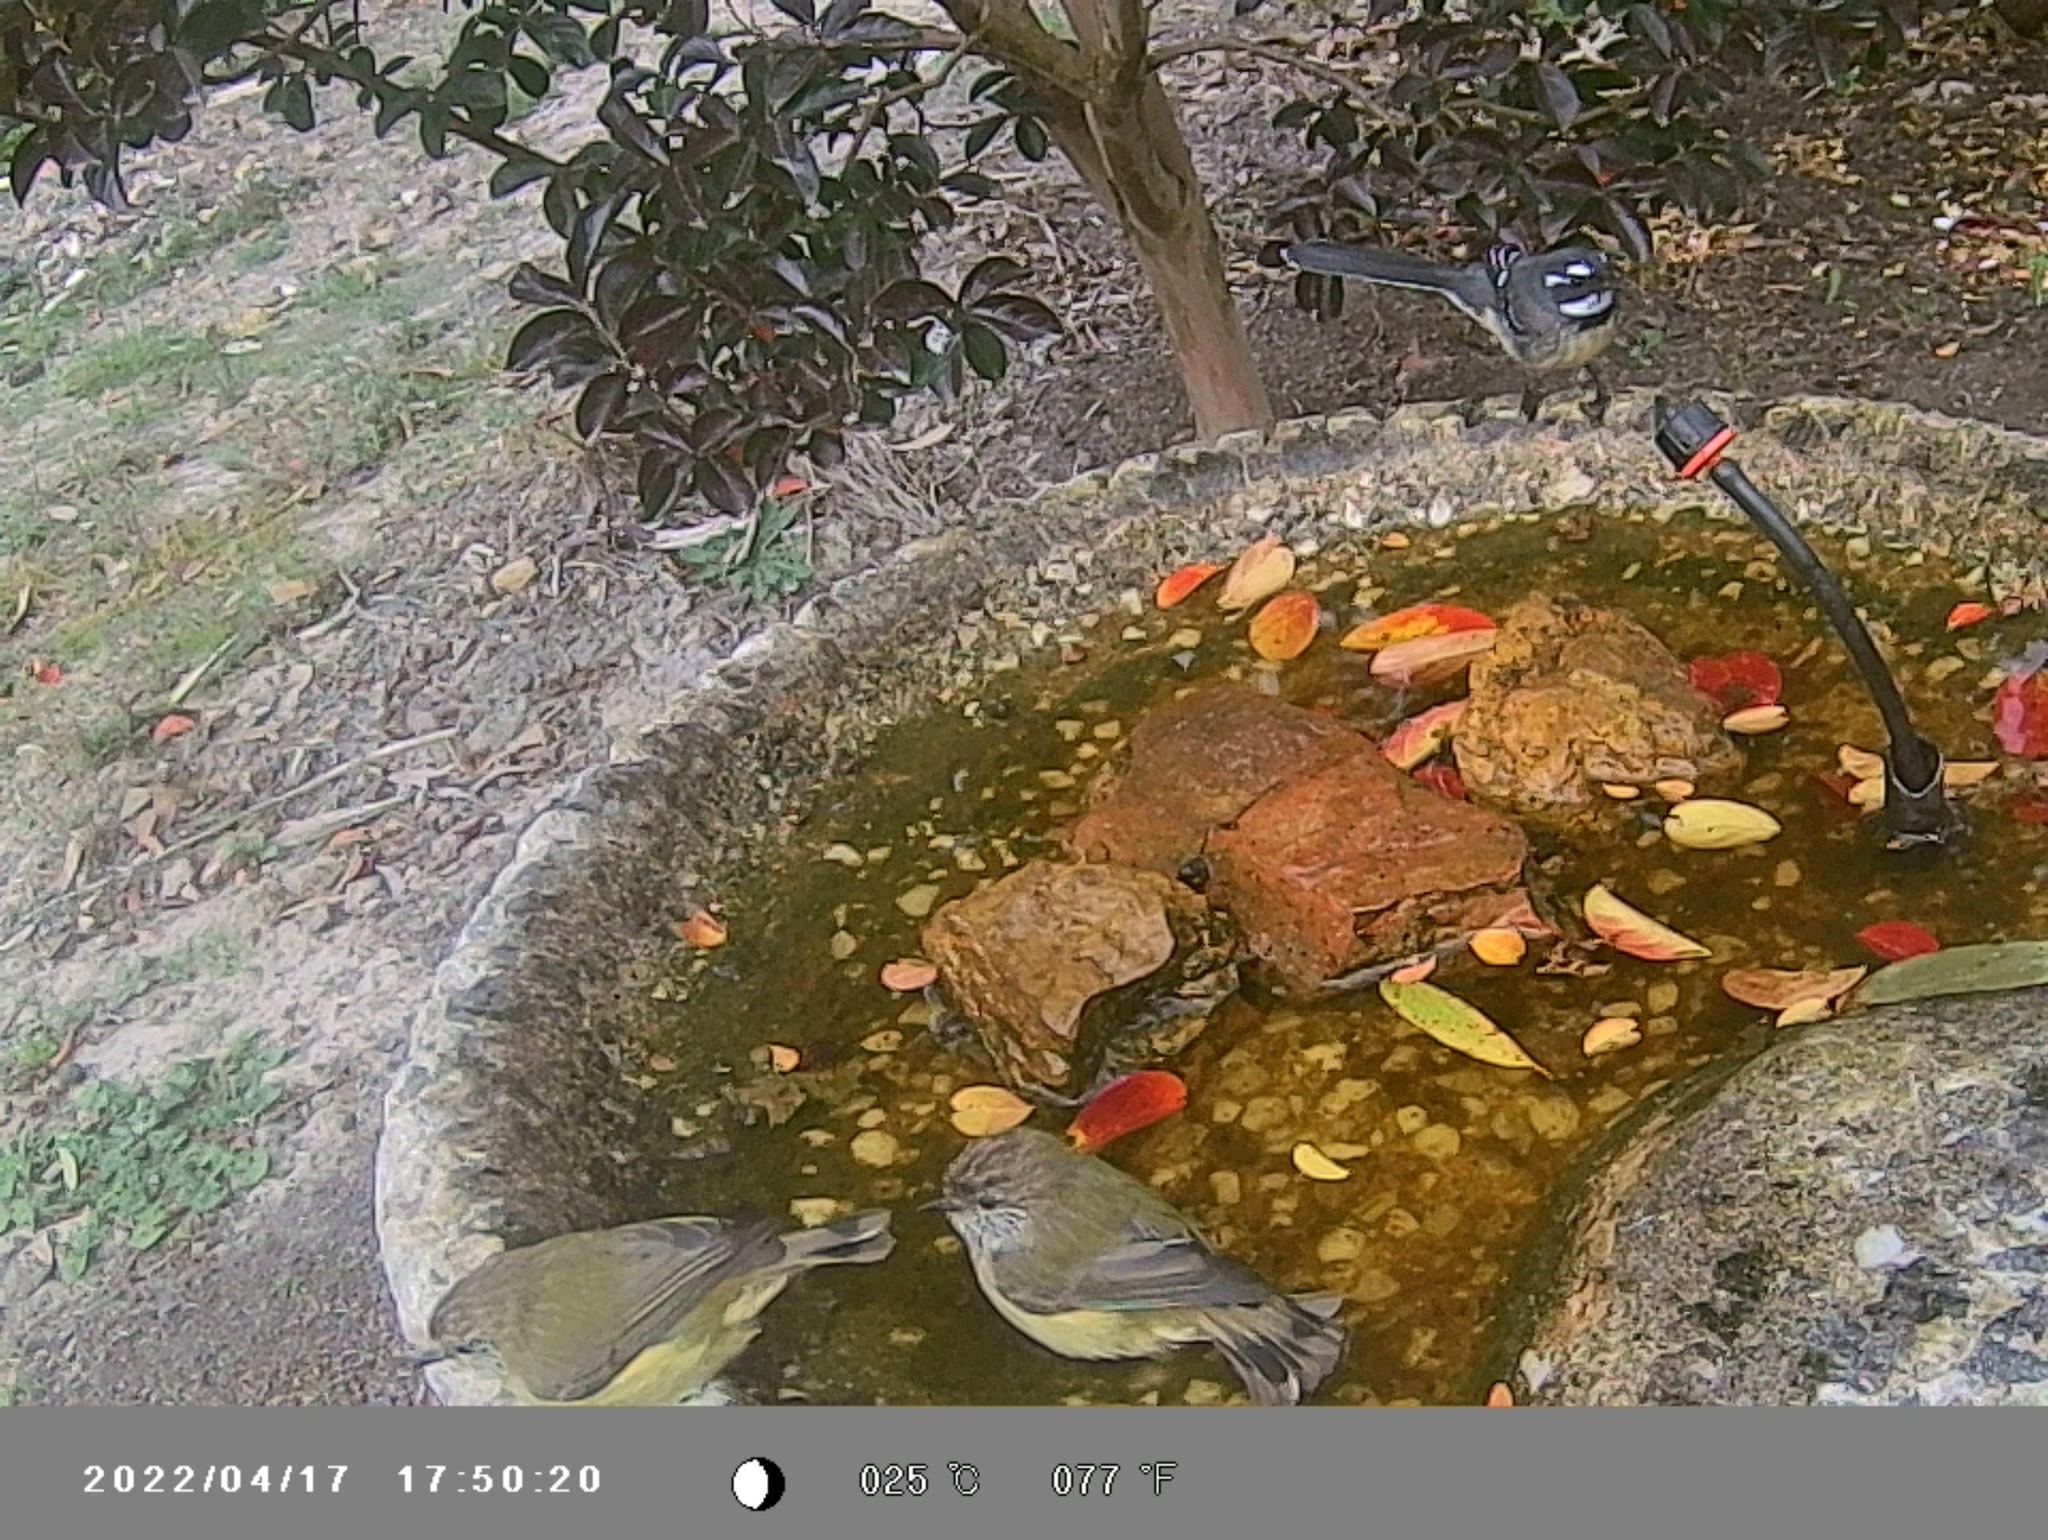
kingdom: Animalia
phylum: Chordata
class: Aves
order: Passeriformes
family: Rhipiduridae
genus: Rhipidura
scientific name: Rhipidura albiscapa
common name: Grey fantail
